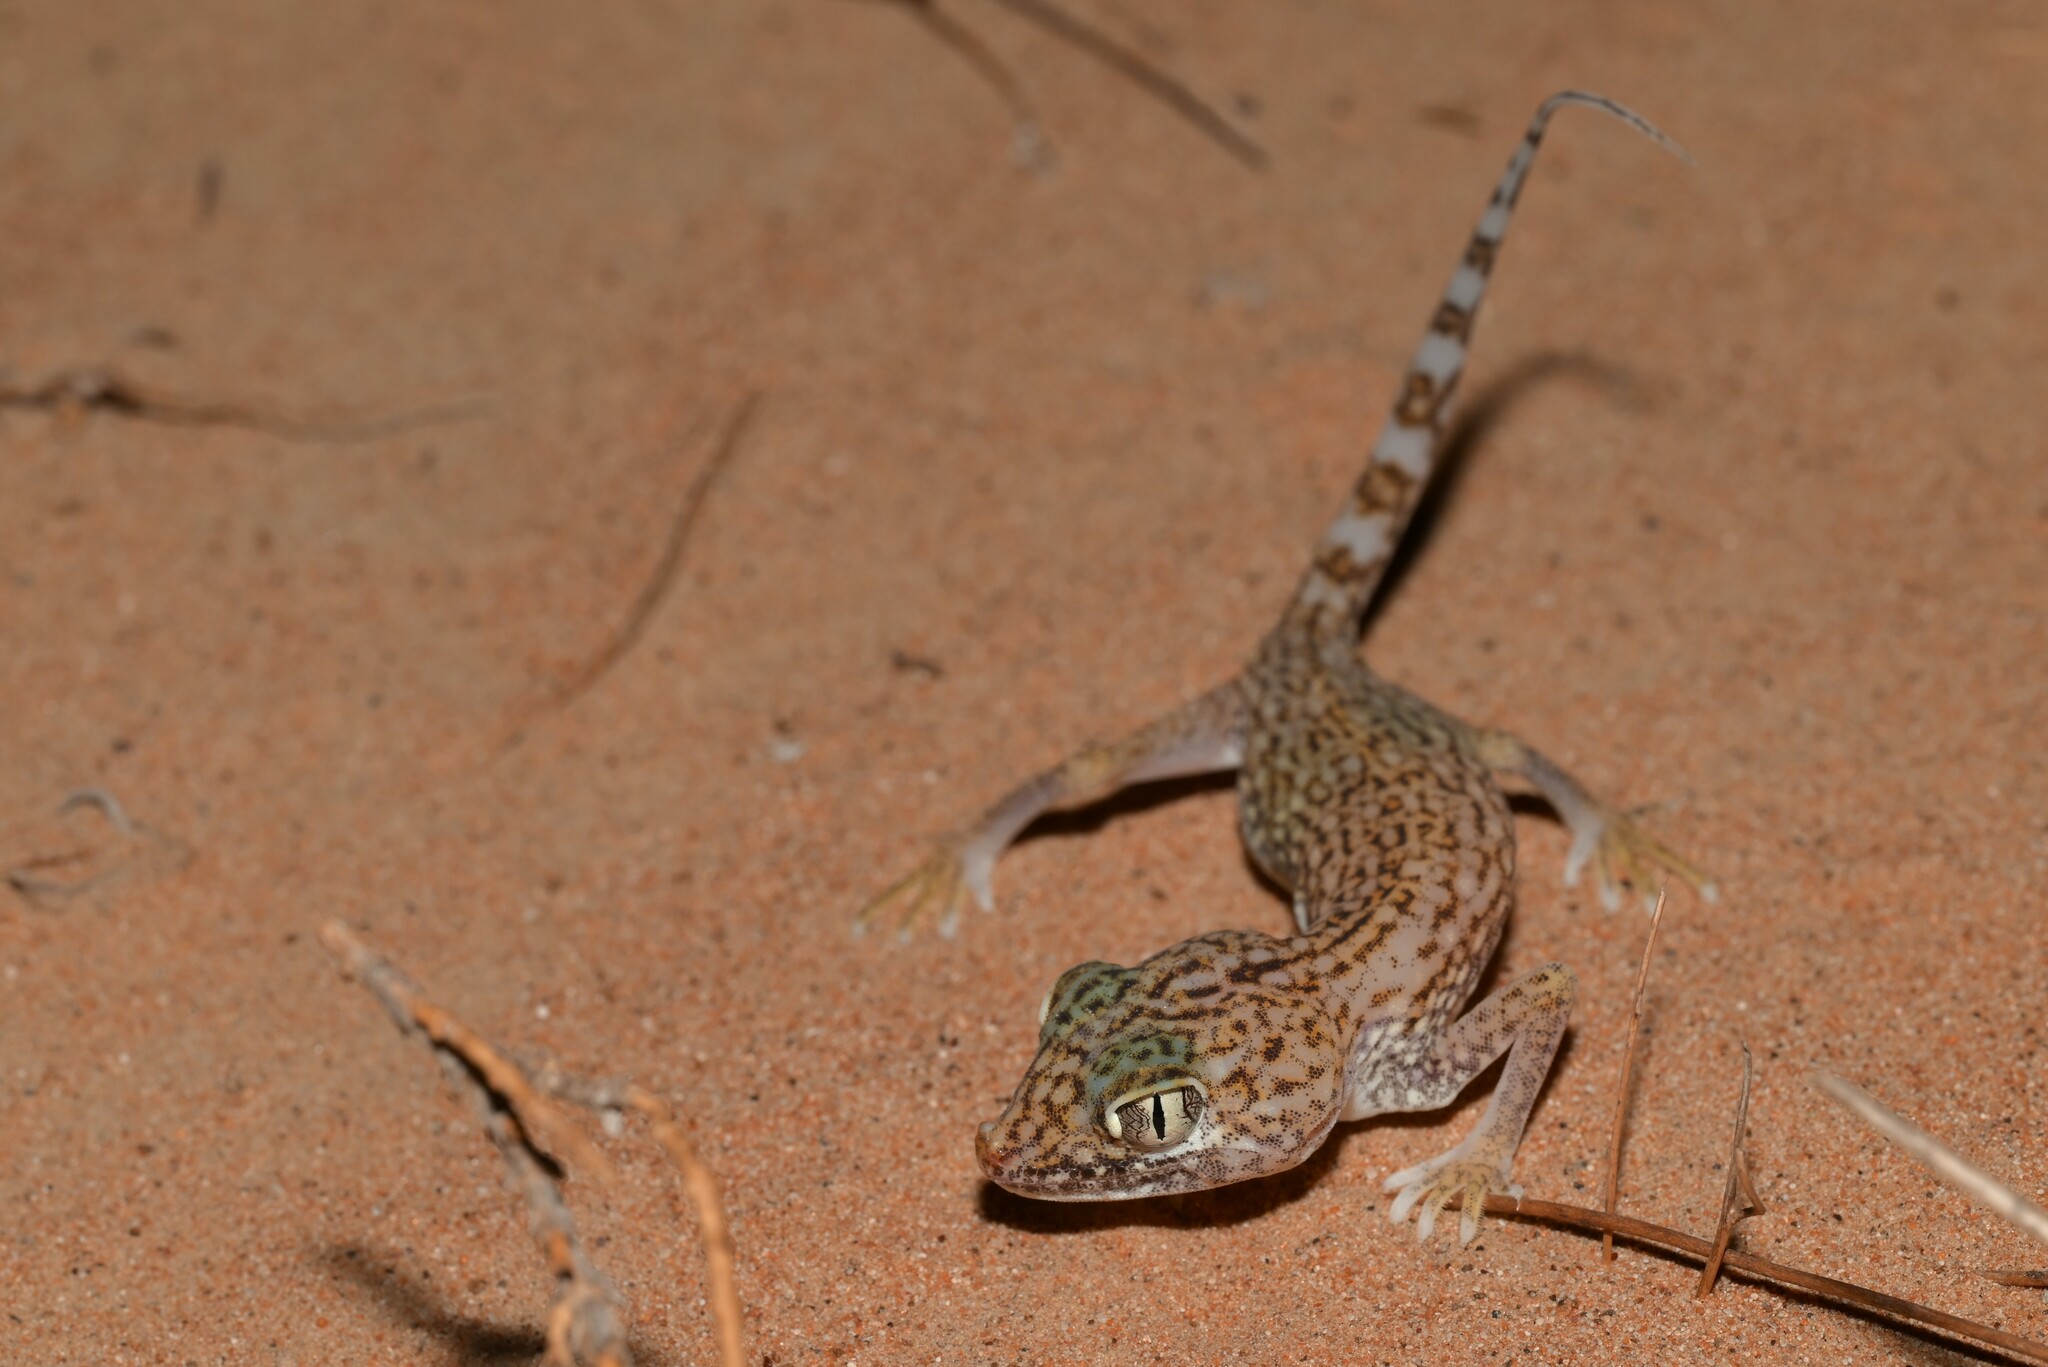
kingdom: Animalia
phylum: Chordata
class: Squamata
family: Gekkonidae
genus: Stenodactylus
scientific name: Stenodactylus doriae
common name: Dune sand gecko
